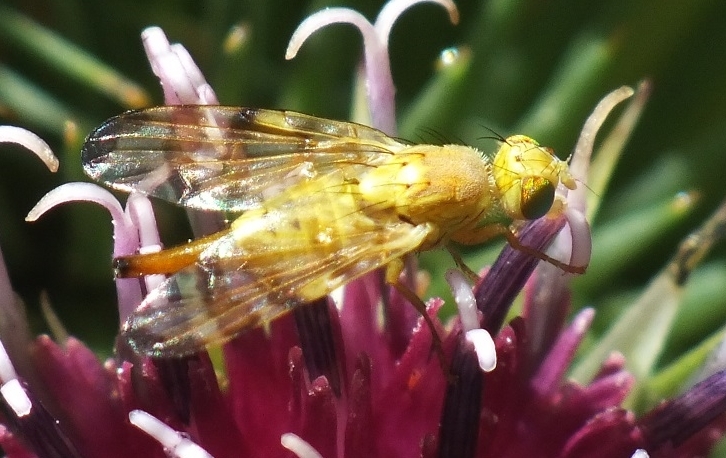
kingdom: Animalia
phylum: Arthropoda
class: Insecta
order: Diptera
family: Tephritidae
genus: Terellia
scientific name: Terellia tussilaginis
